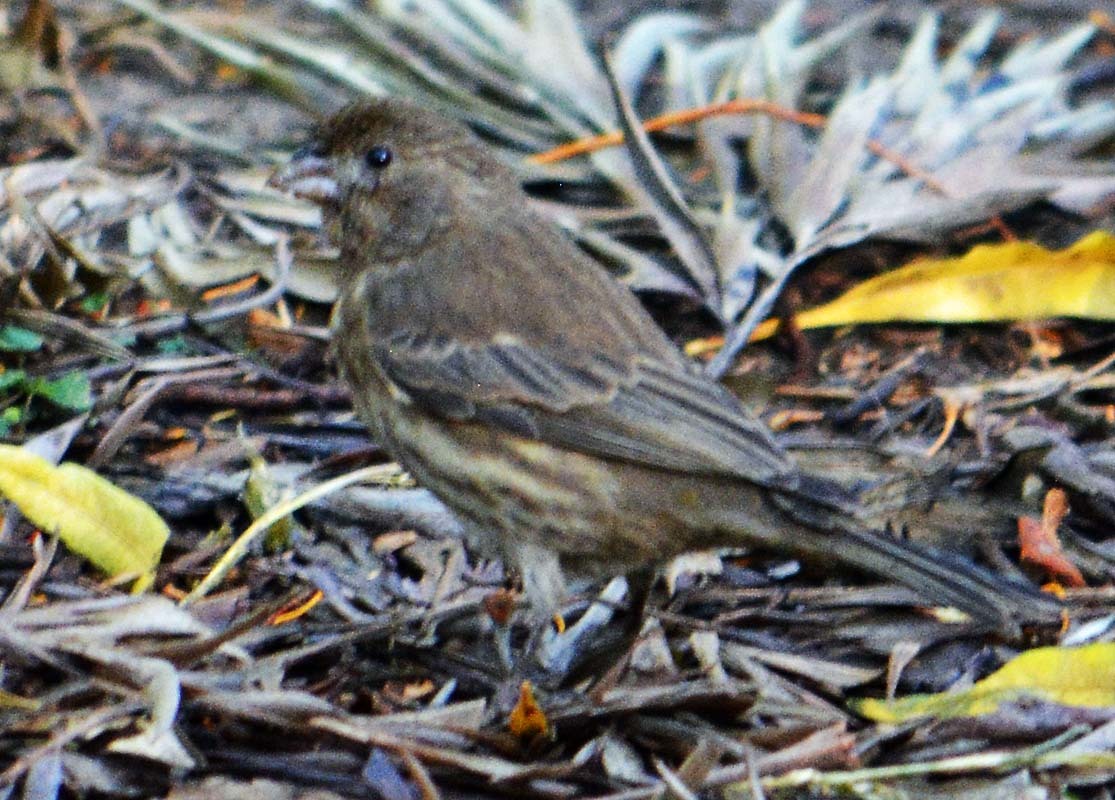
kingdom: Animalia
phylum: Chordata
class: Aves
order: Passeriformes
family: Fringillidae
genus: Haemorhous
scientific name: Haemorhous mexicanus
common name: House finch
